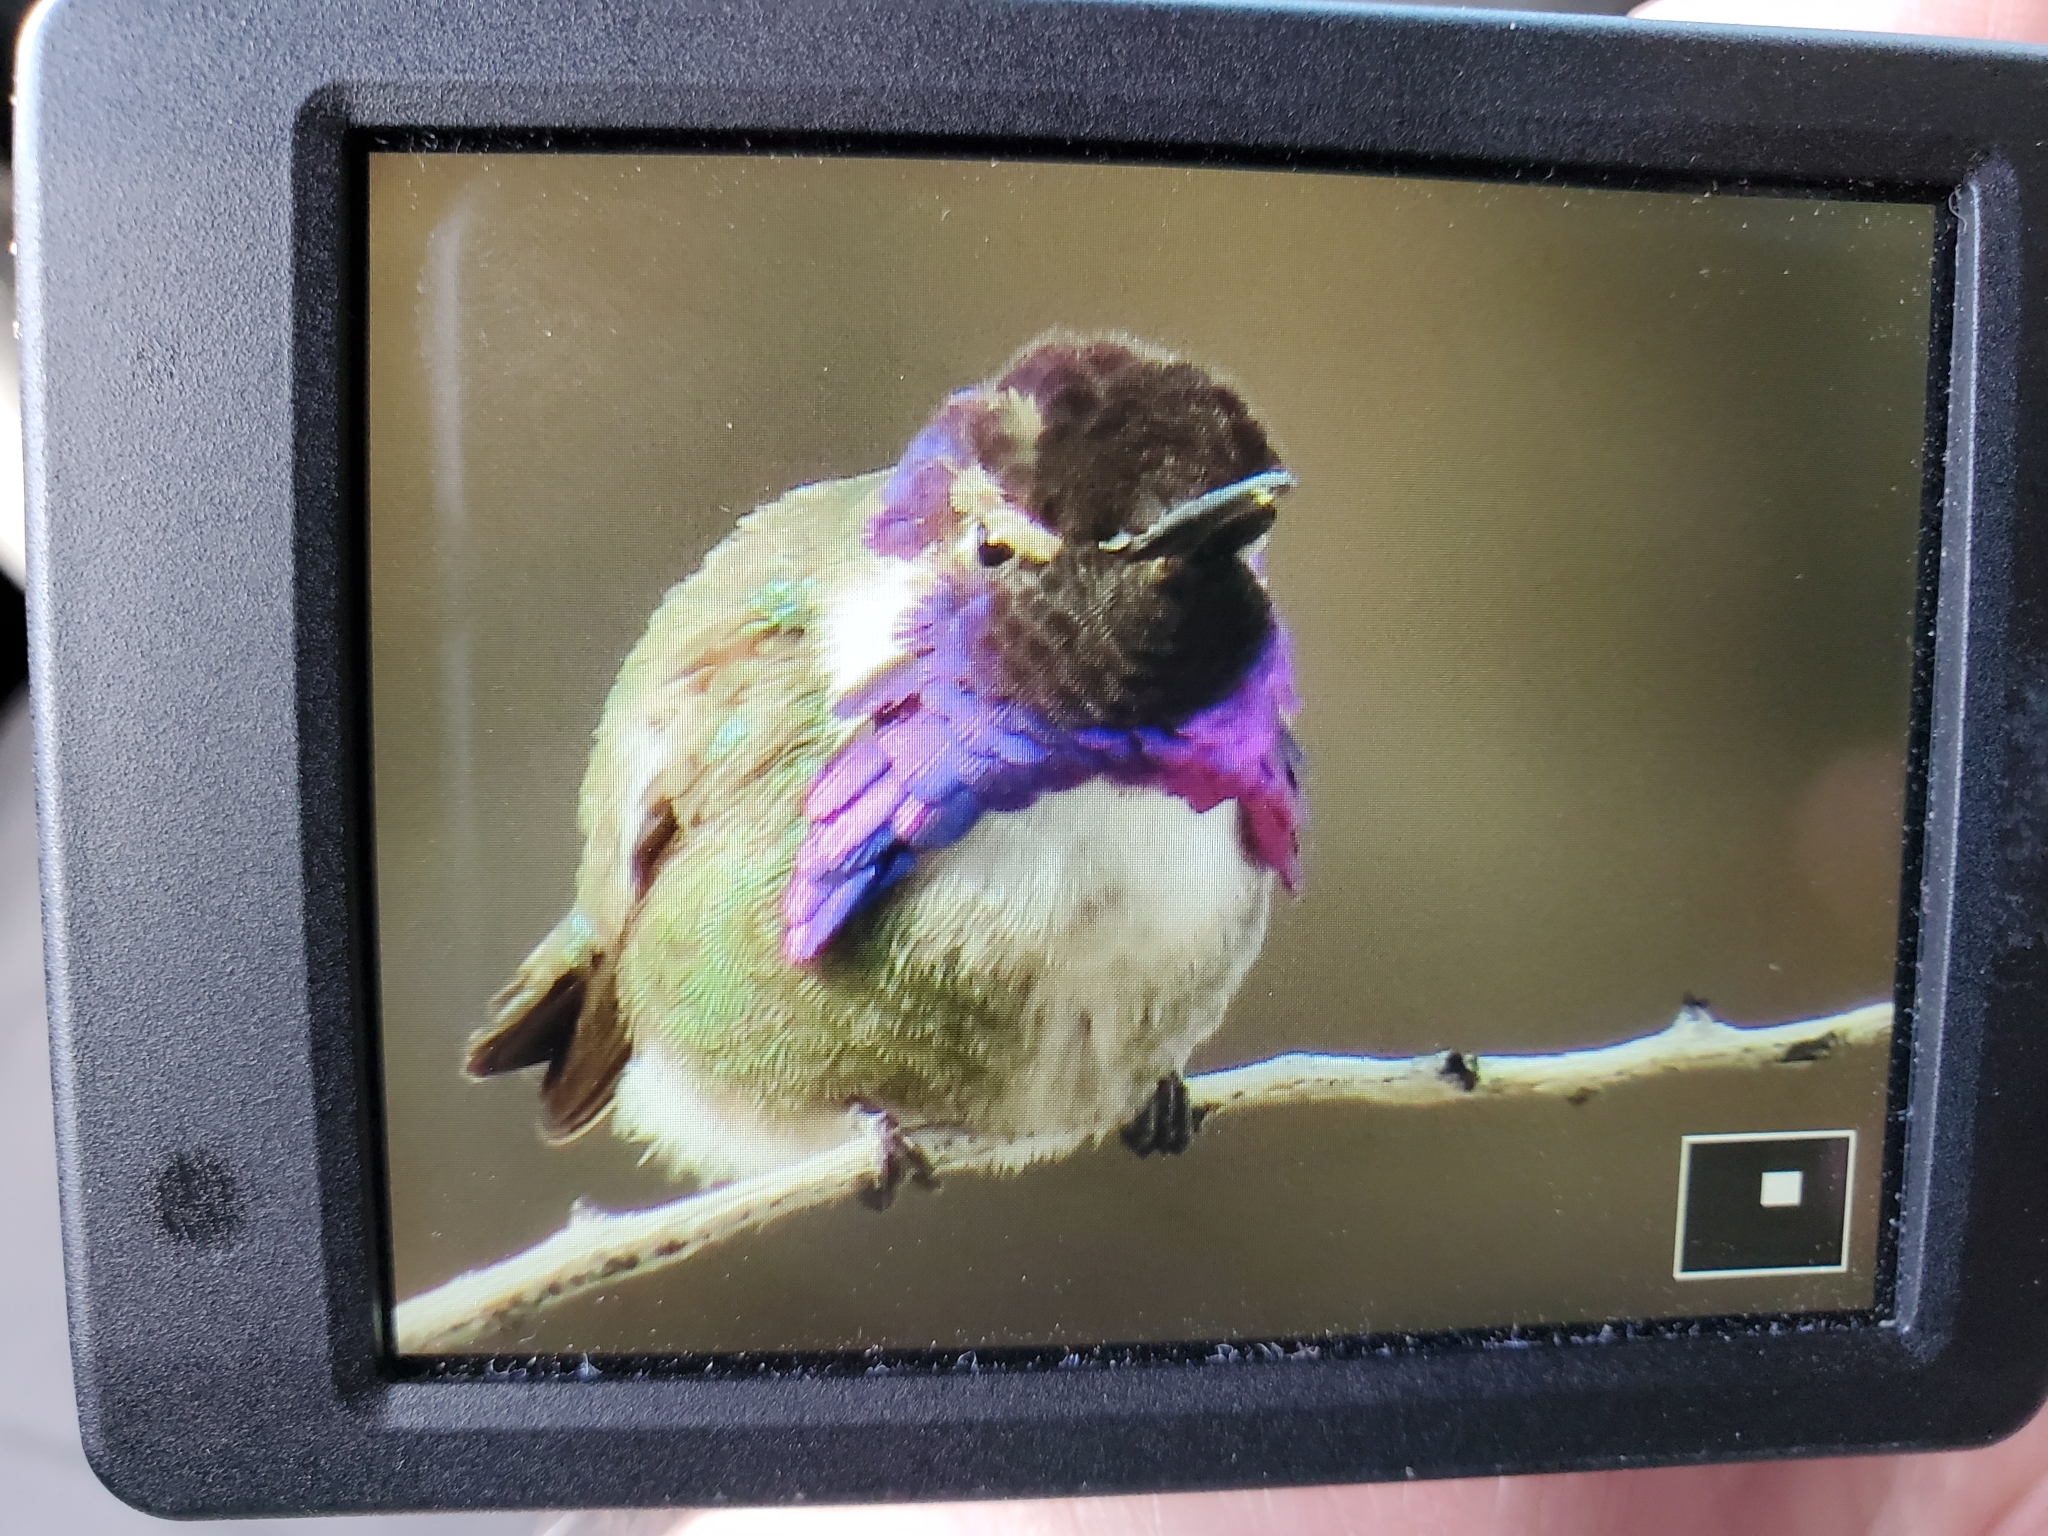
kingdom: Animalia
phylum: Chordata
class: Aves
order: Apodiformes
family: Trochilidae
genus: Calypte
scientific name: Calypte costae
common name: Costa's hummingbird
